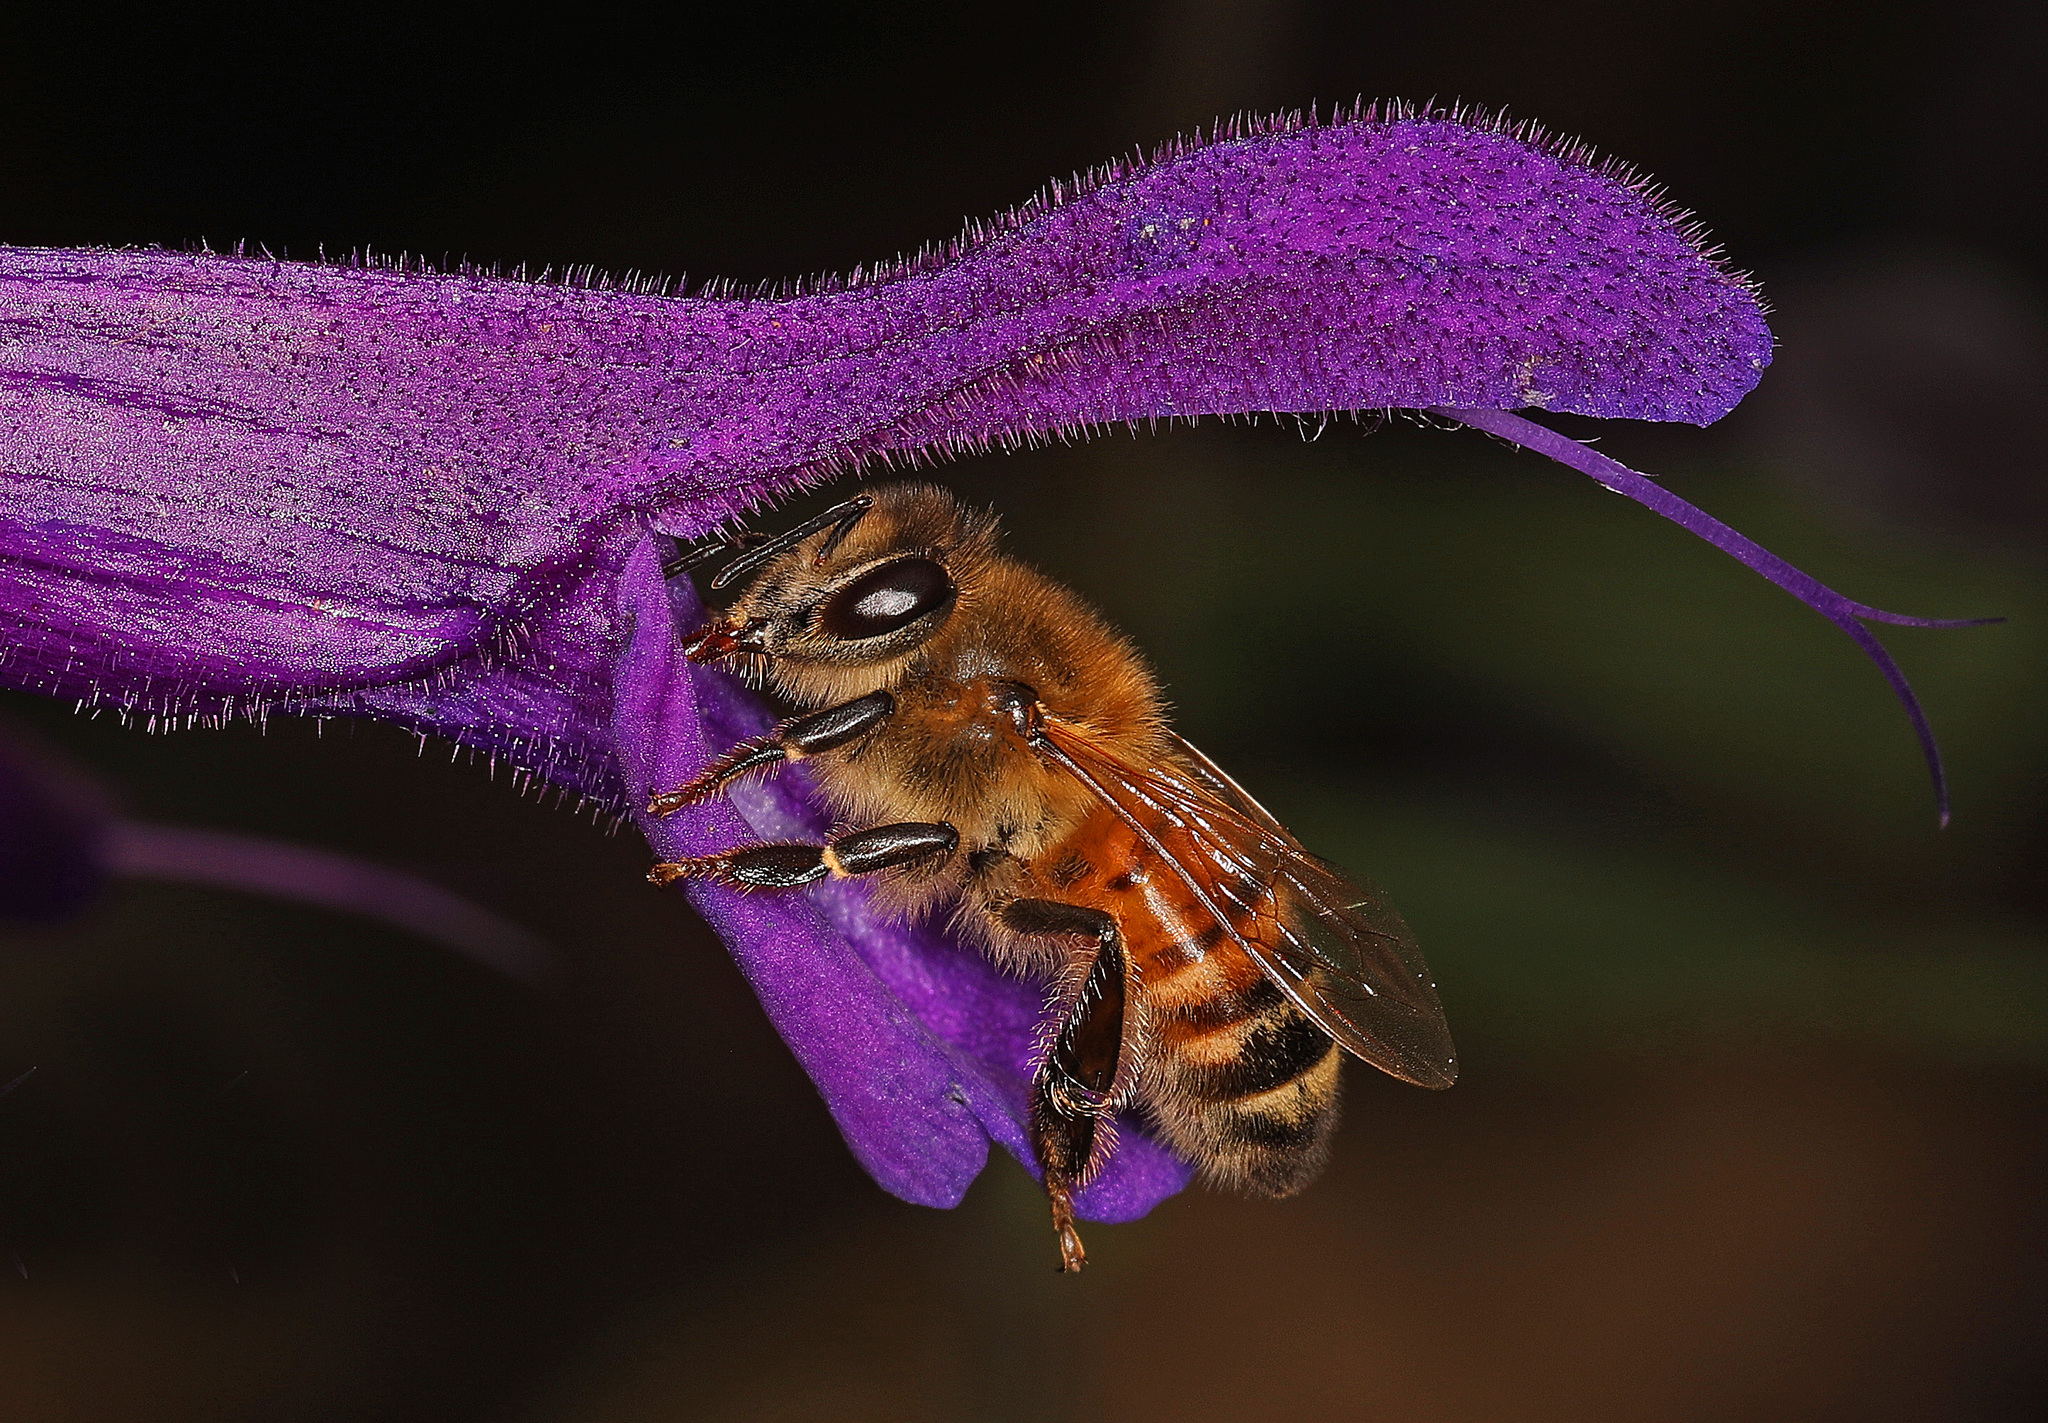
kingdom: Animalia
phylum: Arthropoda
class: Insecta
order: Hymenoptera
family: Apidae
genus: Apis
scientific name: Apis mellifera
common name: Honey bee
